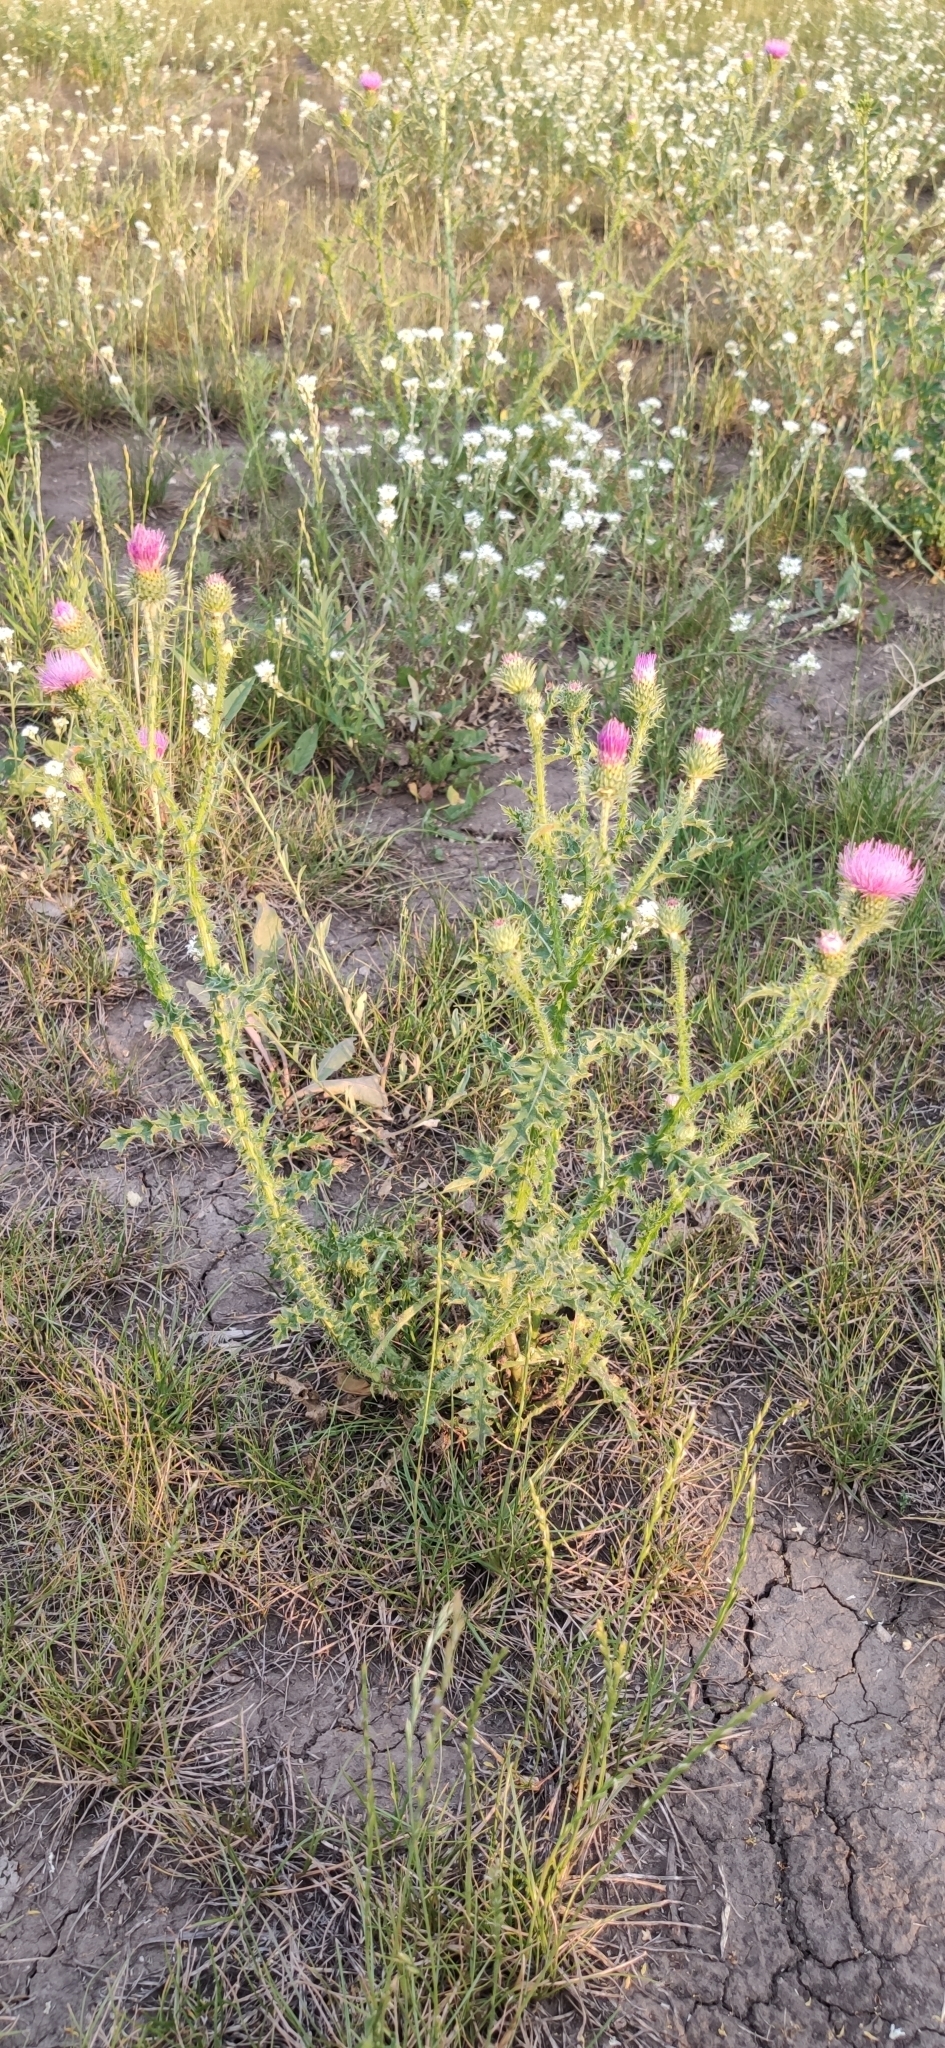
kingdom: Plantae
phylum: Tracheophyta
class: Magnoliopsida
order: Asterales
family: Asteraceae
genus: Carduus
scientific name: Carduus acanthoides
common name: Plumeless thistle
